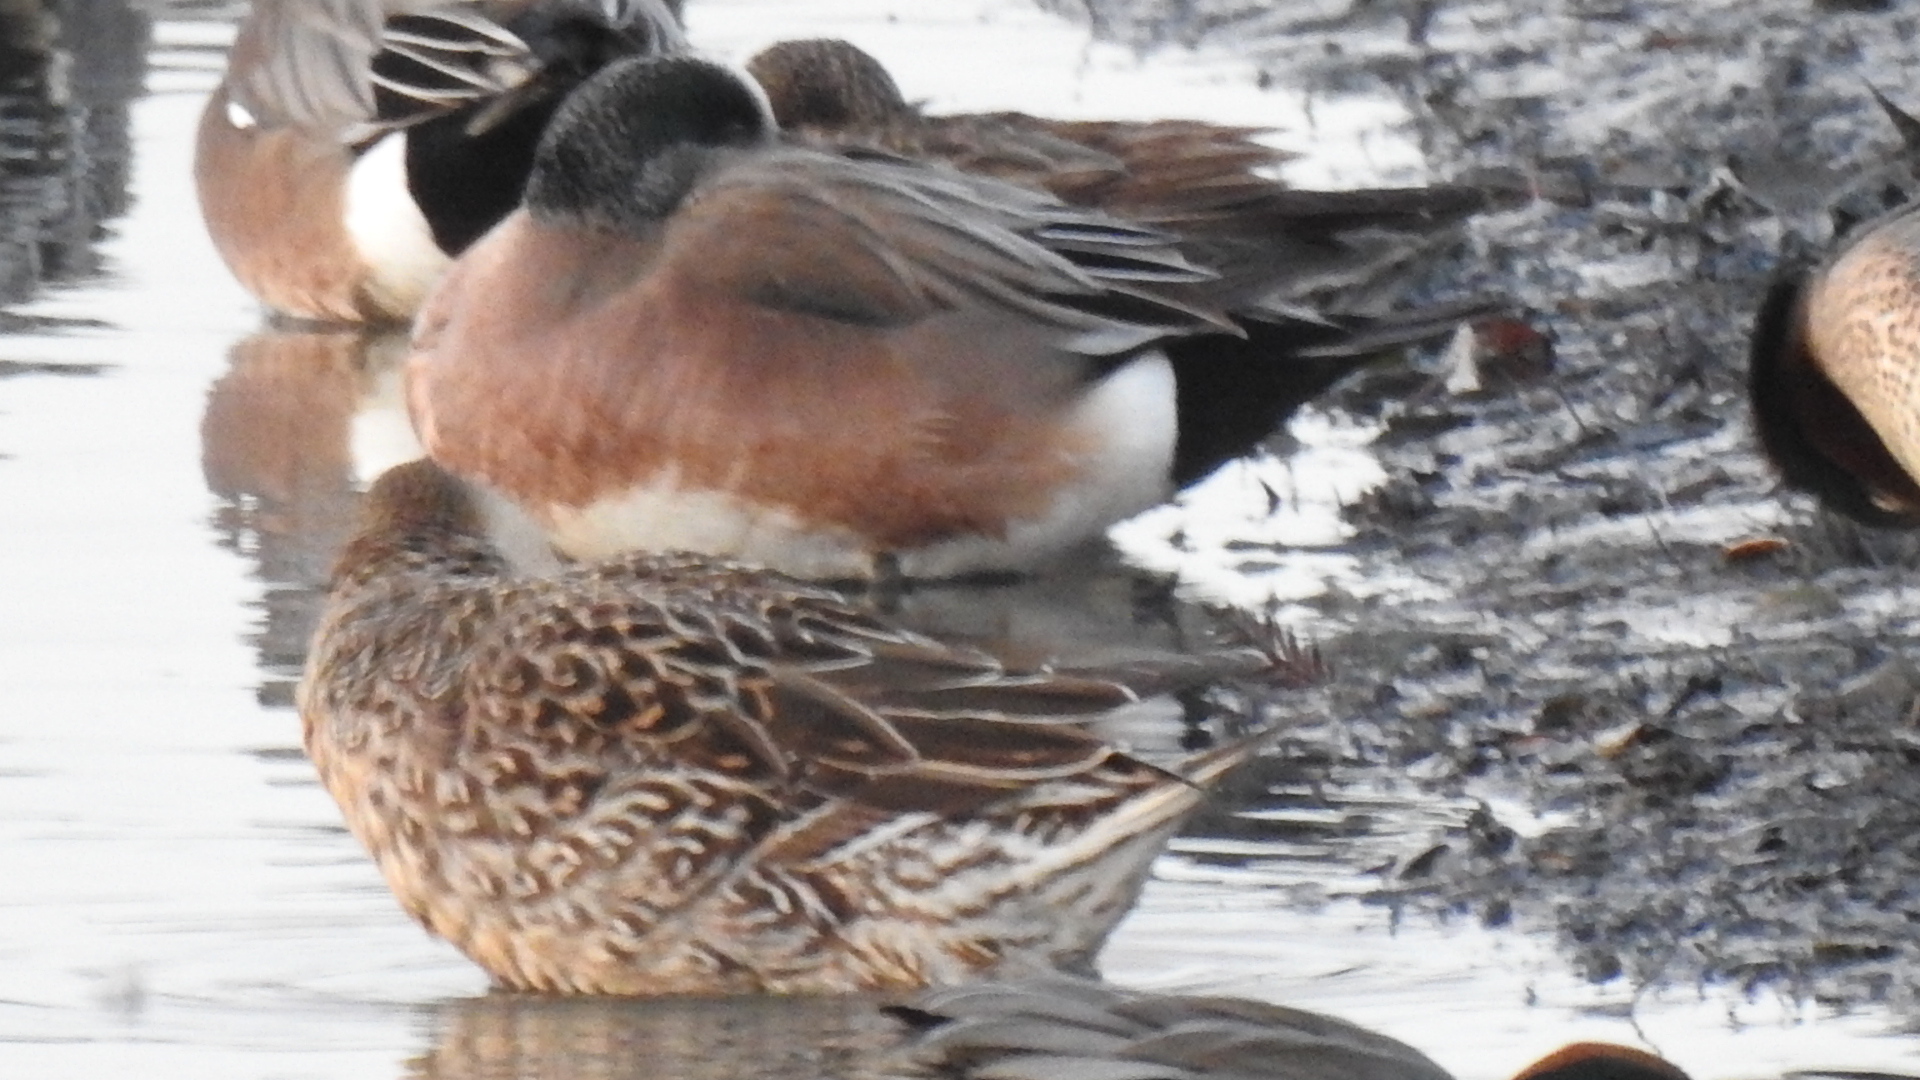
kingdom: Animalia
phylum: Chordata
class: Aves
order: Anseriformes
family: Anatidae
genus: Mareca
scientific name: Mareca americana
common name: American wigeon
